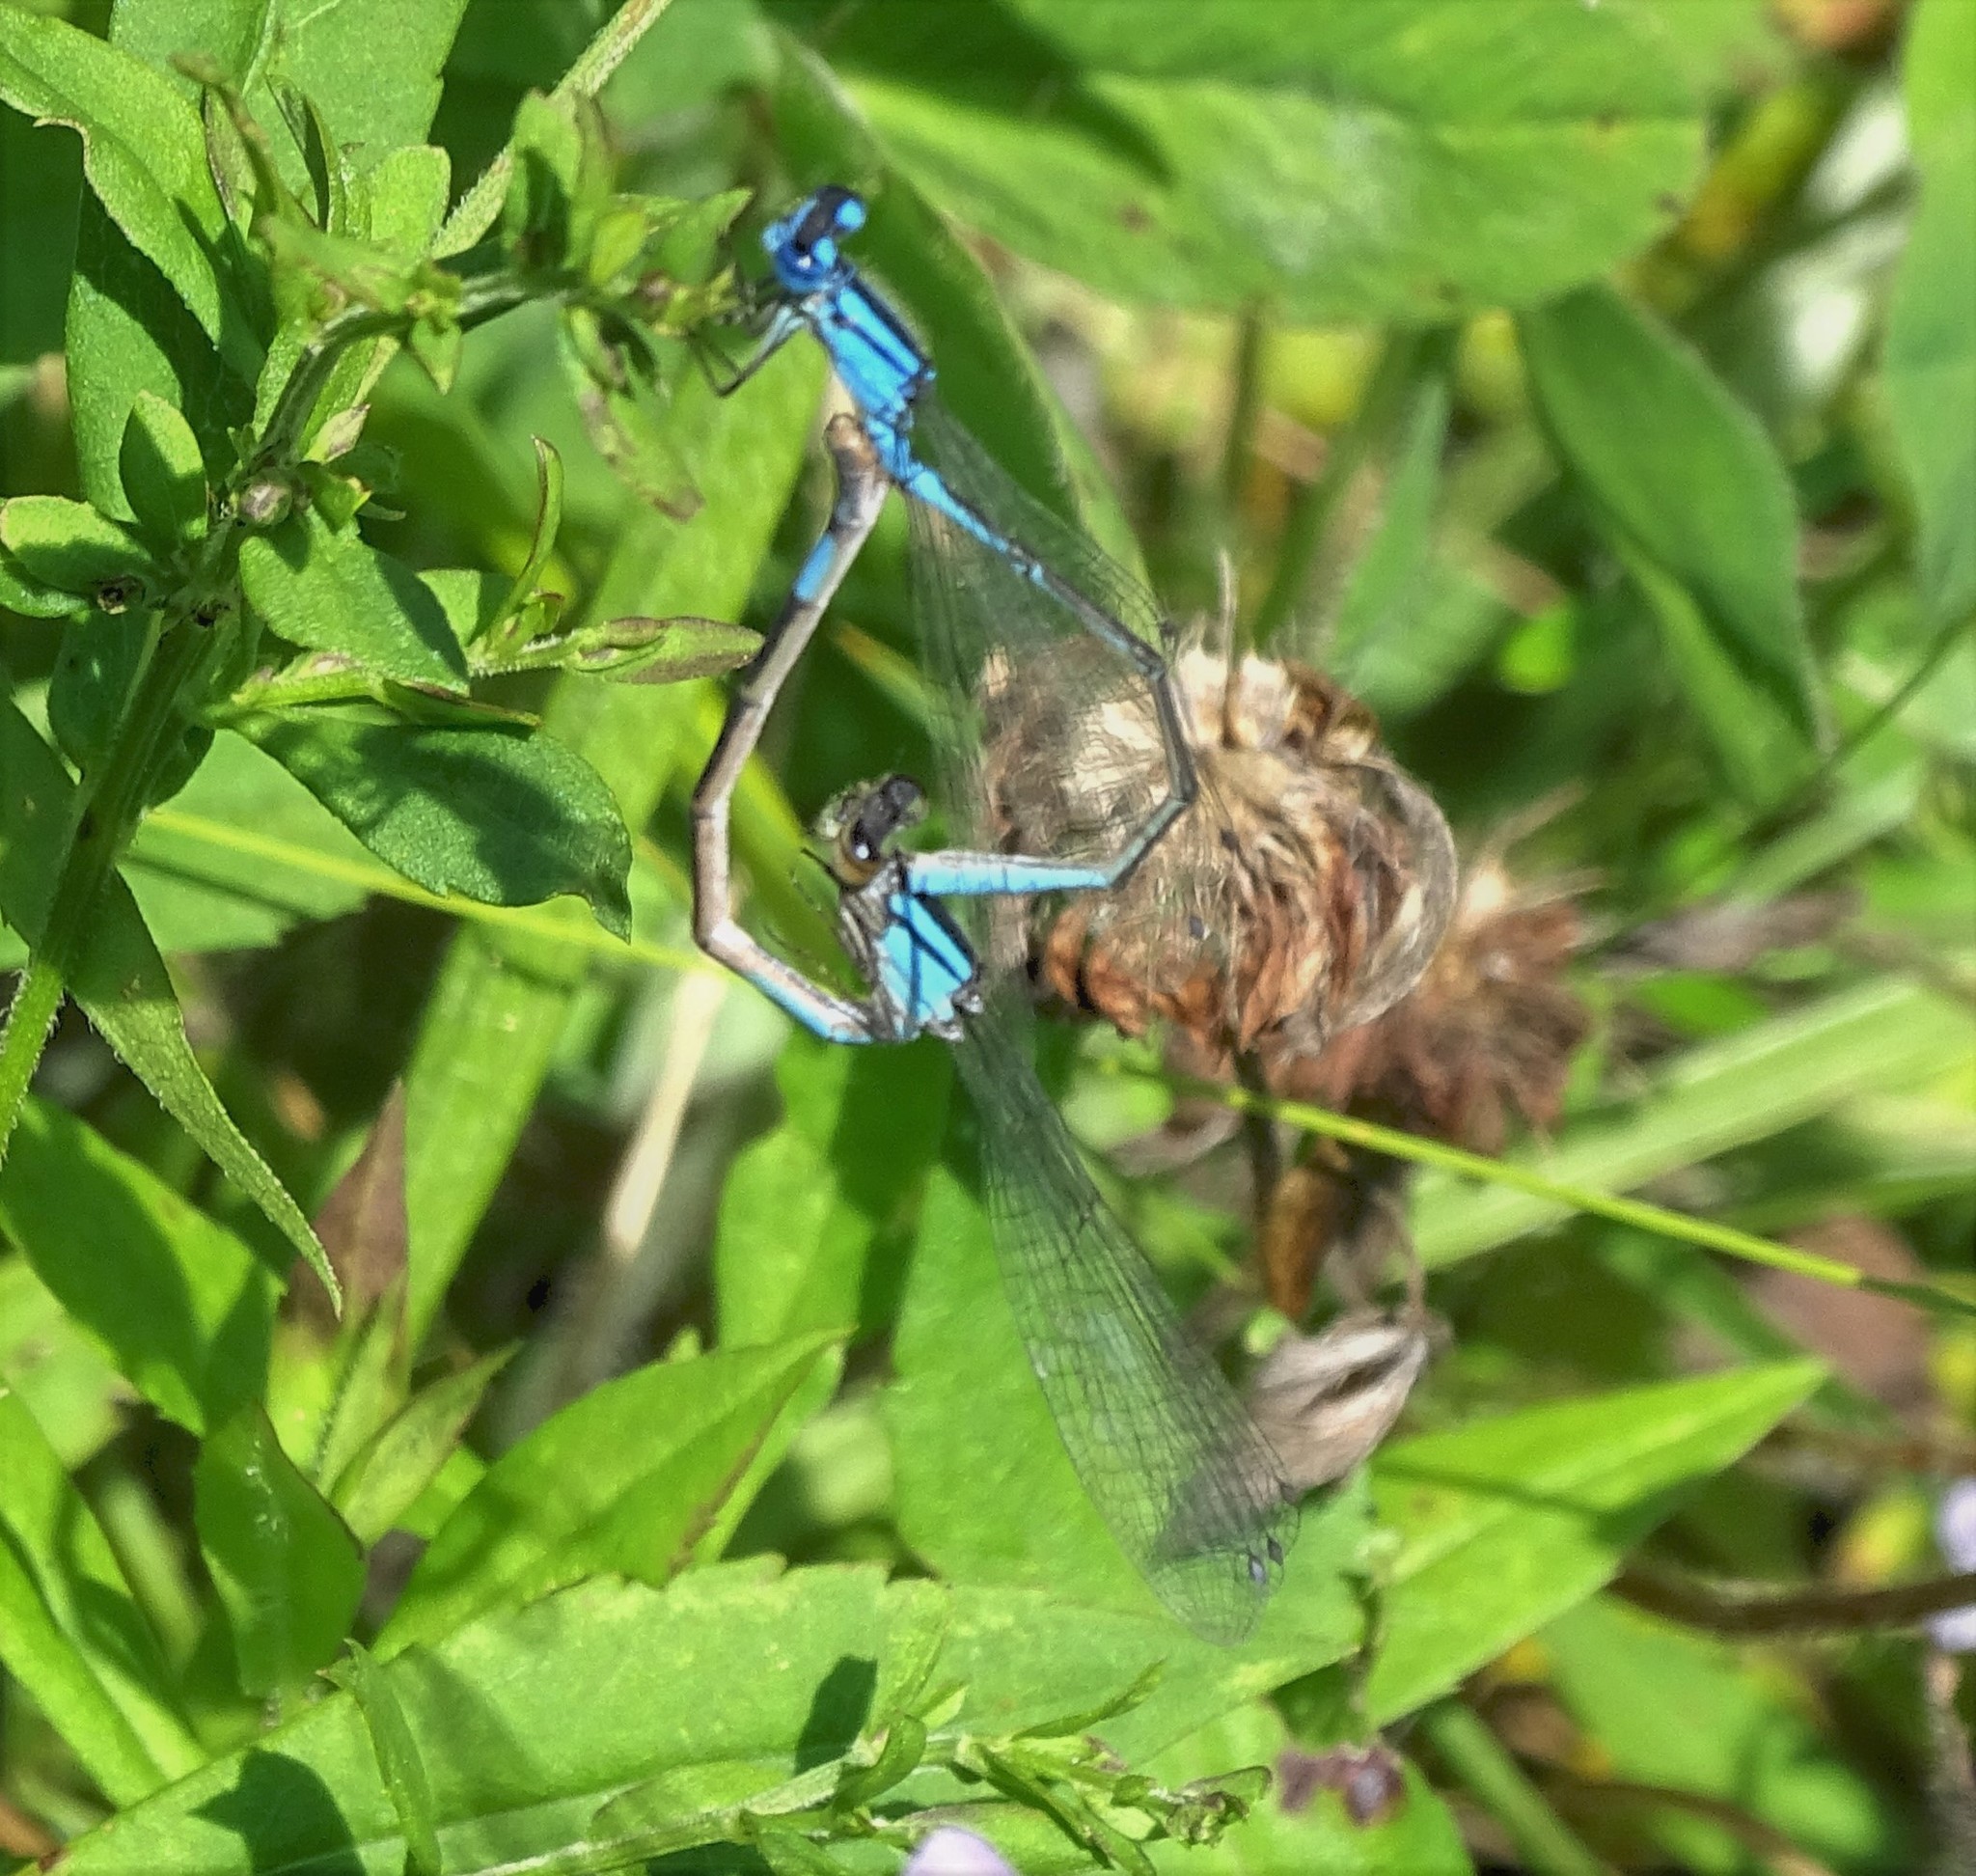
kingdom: Animalia
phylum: Arthropoda
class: Insecta
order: Odonata
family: Coenagrionidae
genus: Enallagma
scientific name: Enallagma aspersum
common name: Azure bluet
